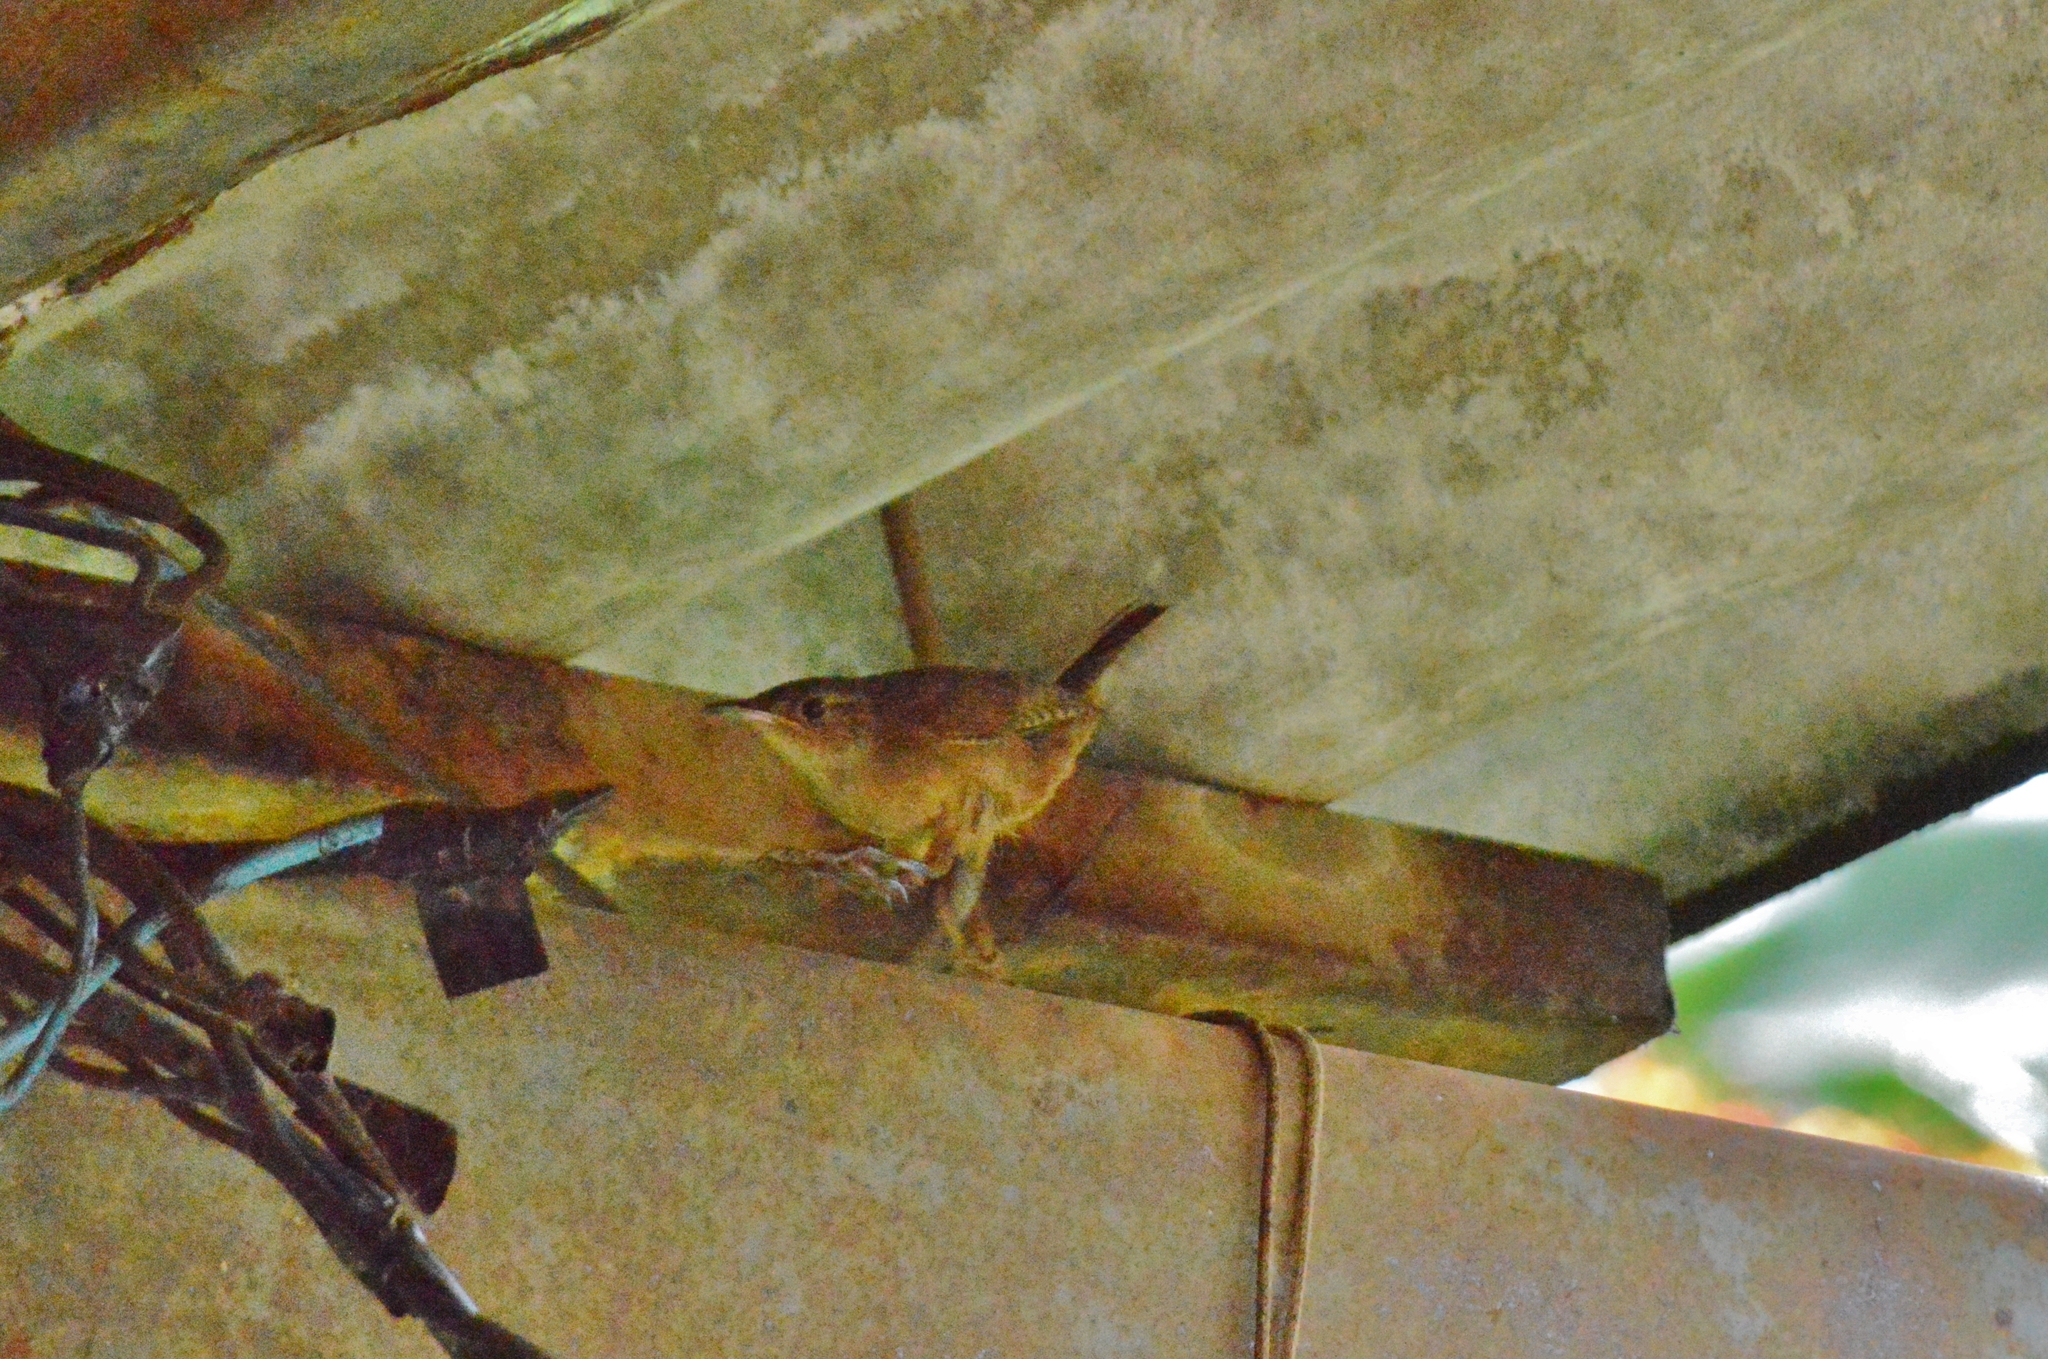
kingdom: Animalia
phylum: Chordata
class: Aves
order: Passeriformes
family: Troglodytidae
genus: Troglodytes
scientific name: Troglodytes aedon
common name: House wren
